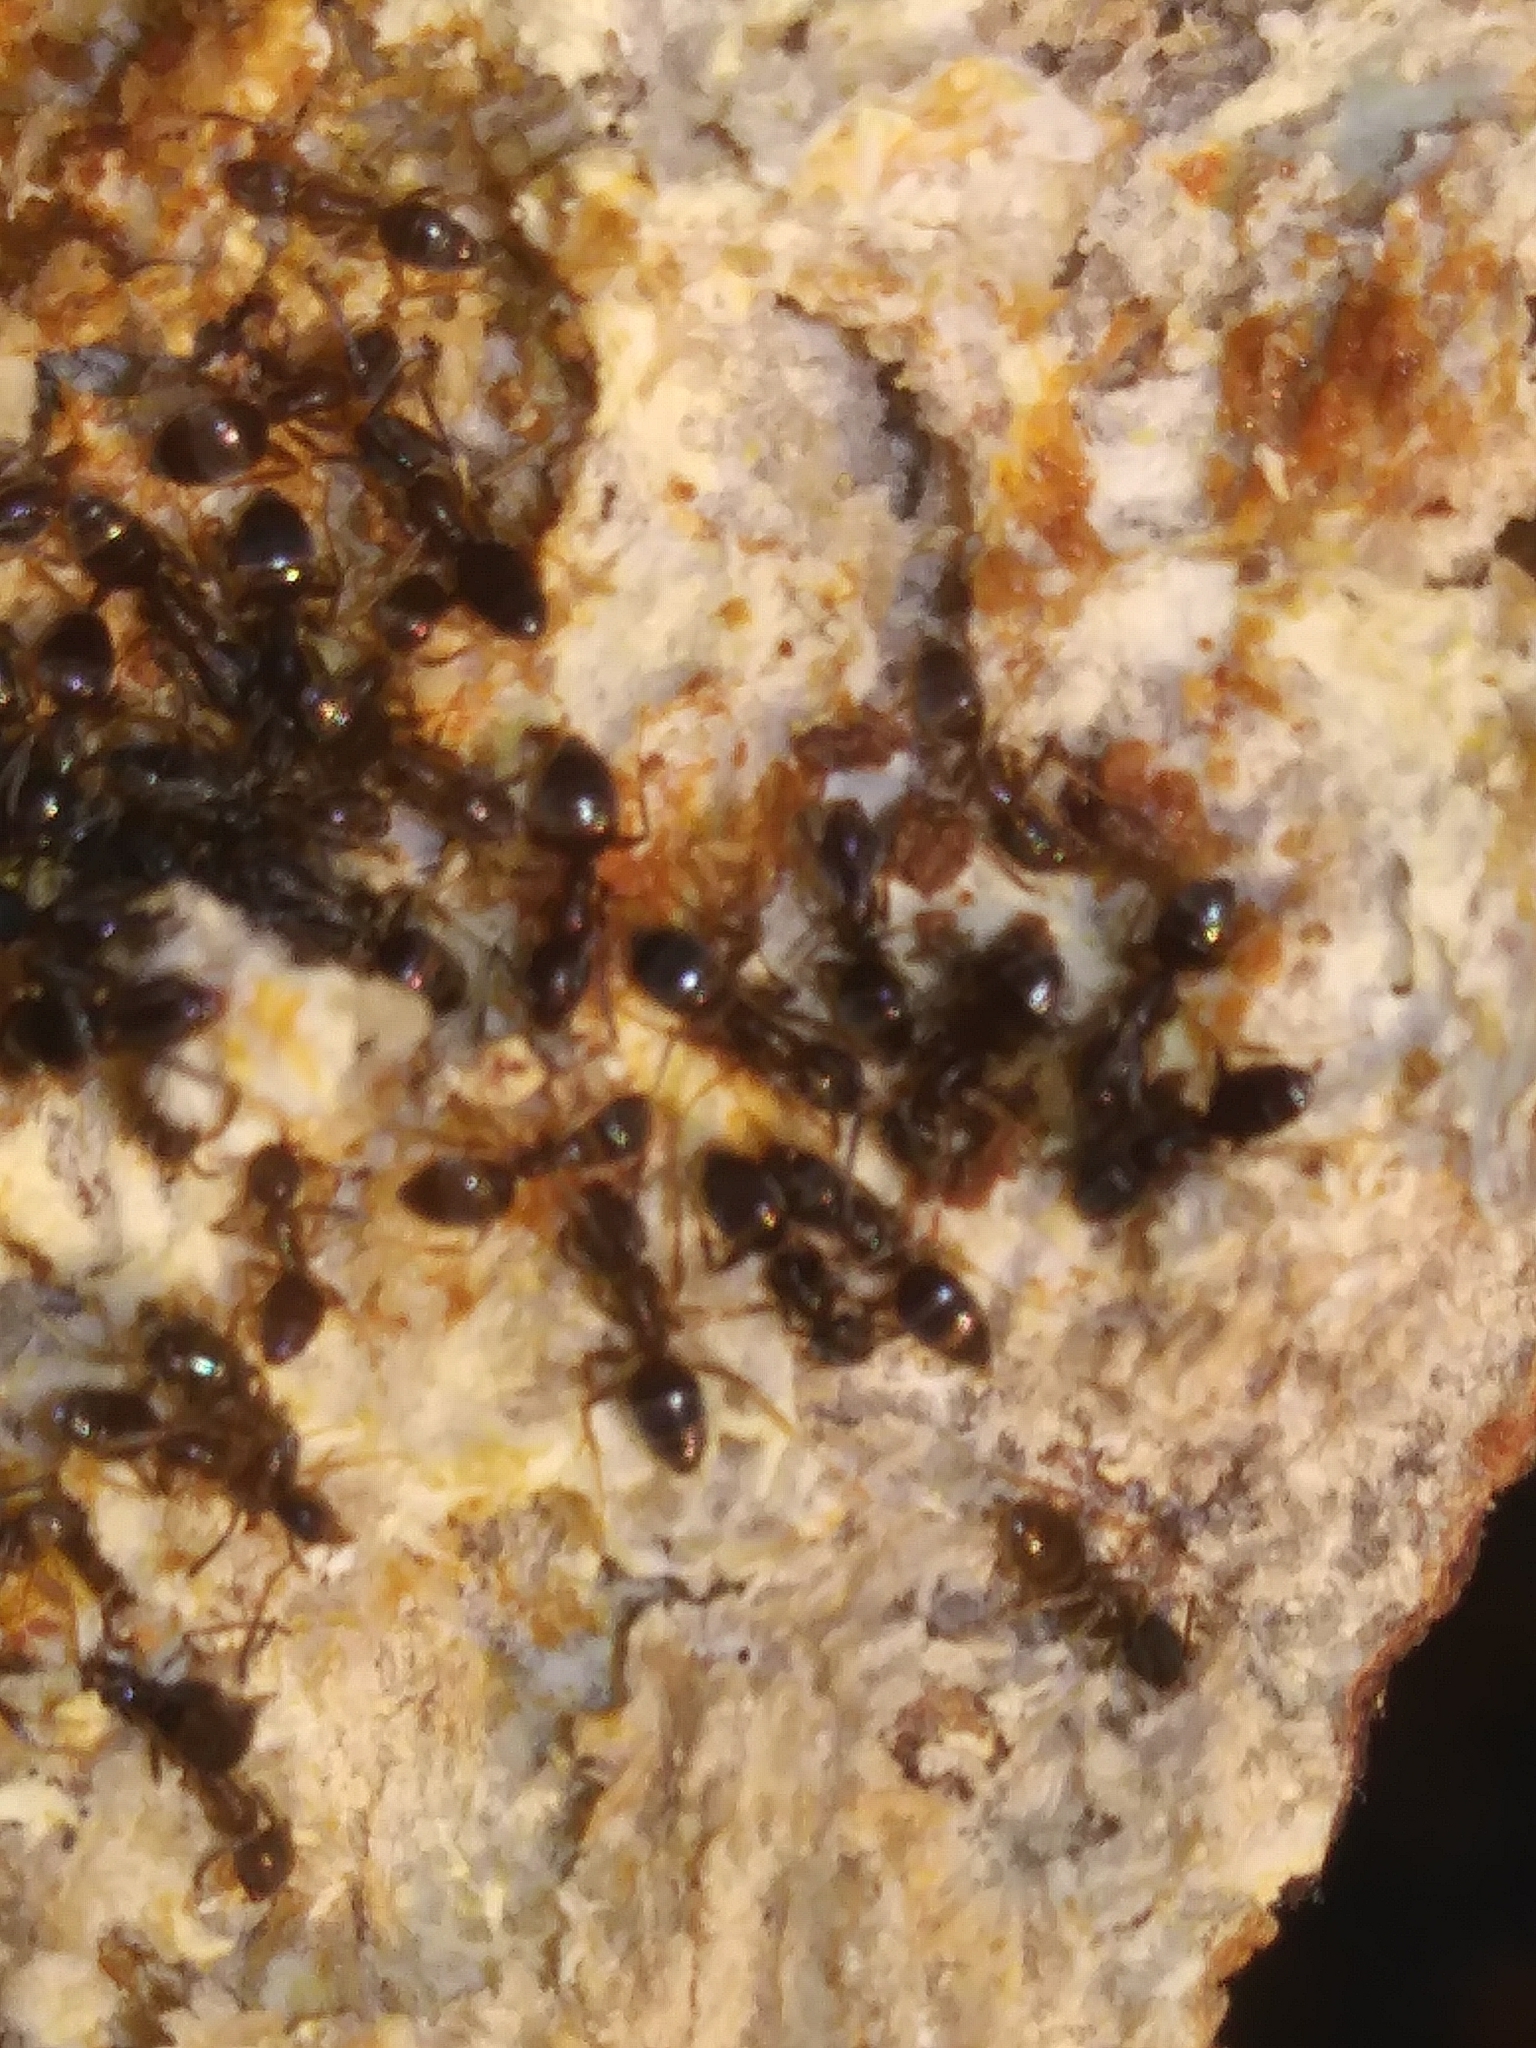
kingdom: Animalia
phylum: Arthropoda
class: Insecta
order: Hymenoptera
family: Formicidae
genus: Tapinoma
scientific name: Tapinoma sessile
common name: Odorous house ant
